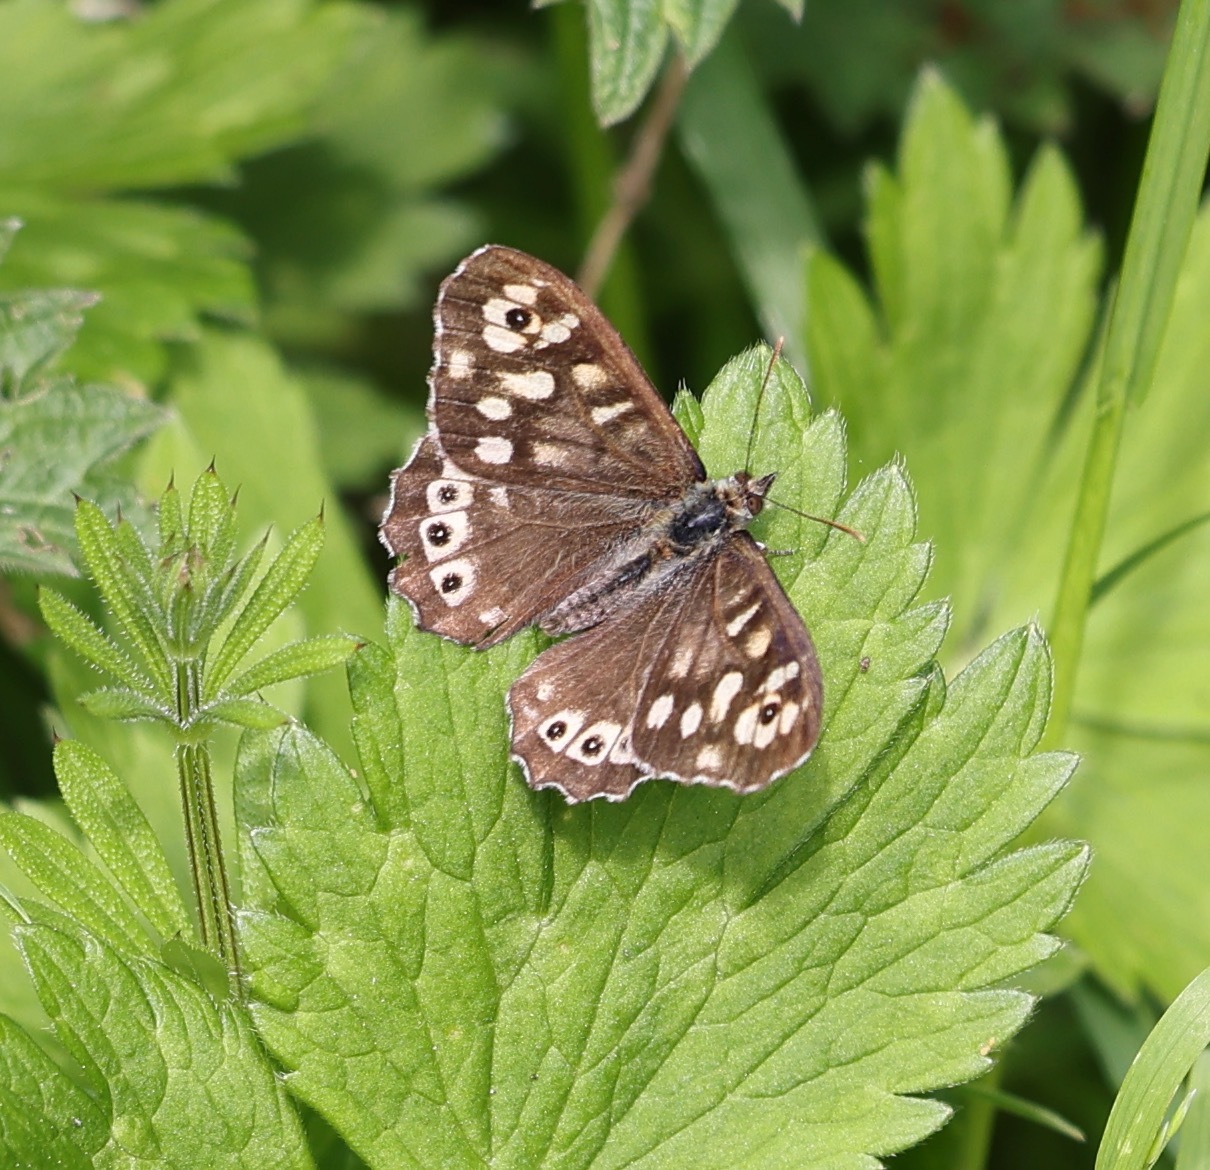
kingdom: Animalia
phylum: Arthropoda
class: Insecta
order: Lepidoptera
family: Nymphalidae
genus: Pararge
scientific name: Pararge aegeria
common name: Speckled wood
